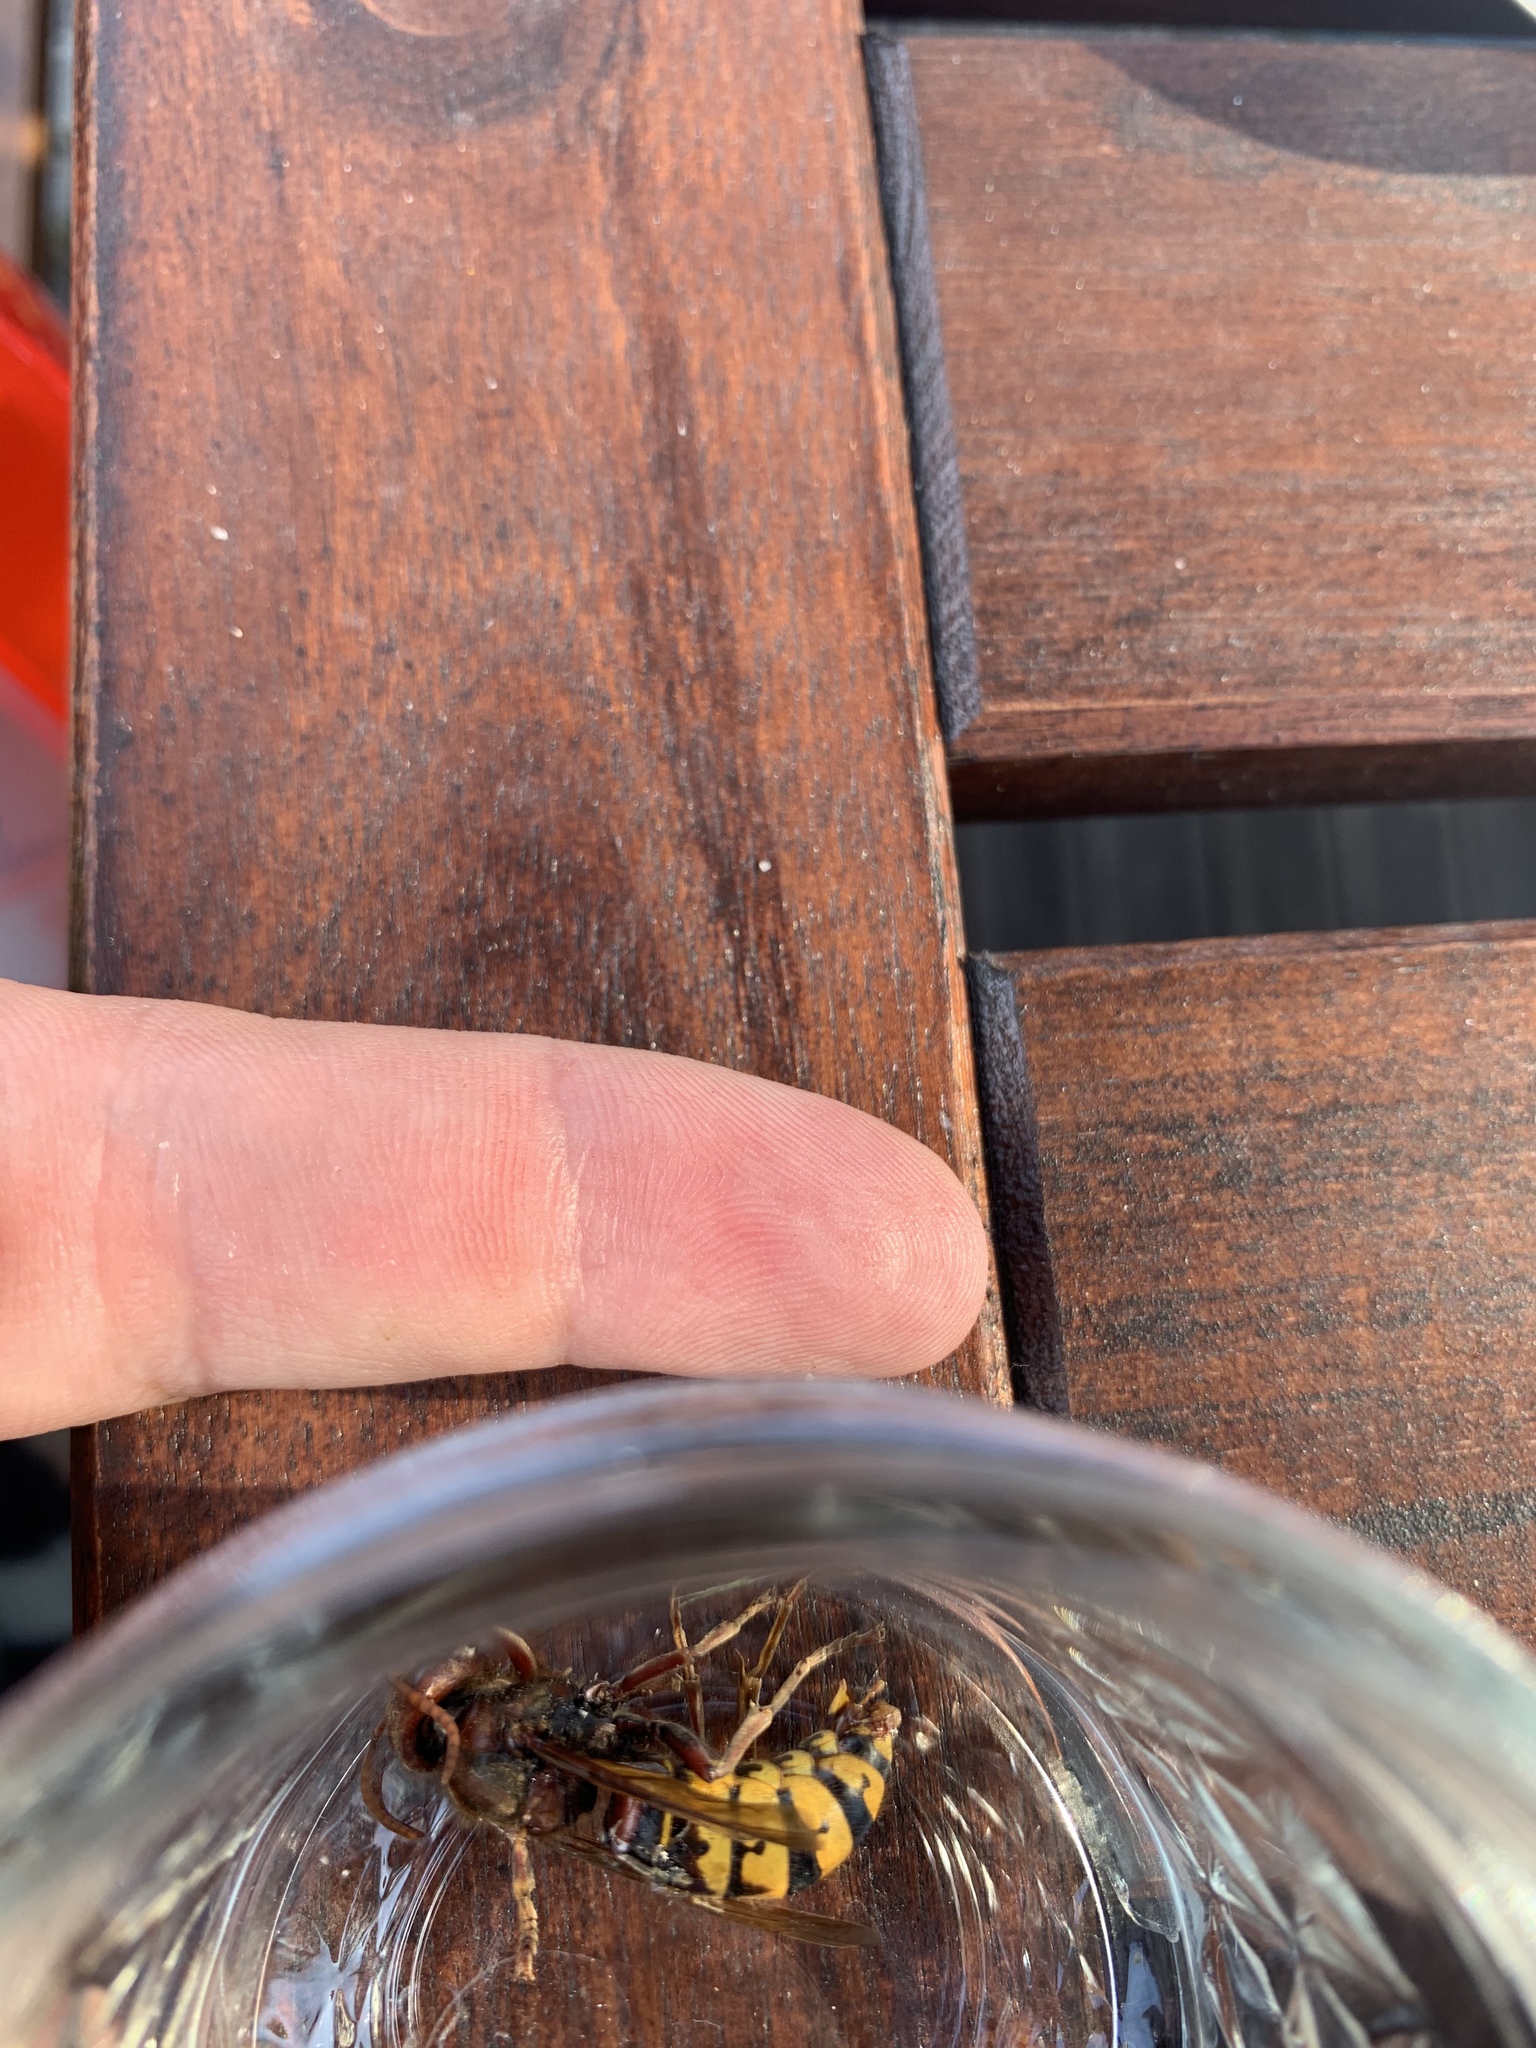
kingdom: Animalia
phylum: Arthropoda
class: Insecta
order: Hymenoptera
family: Vespidae
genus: Vespa
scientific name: Vespa crabro
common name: Hornet
